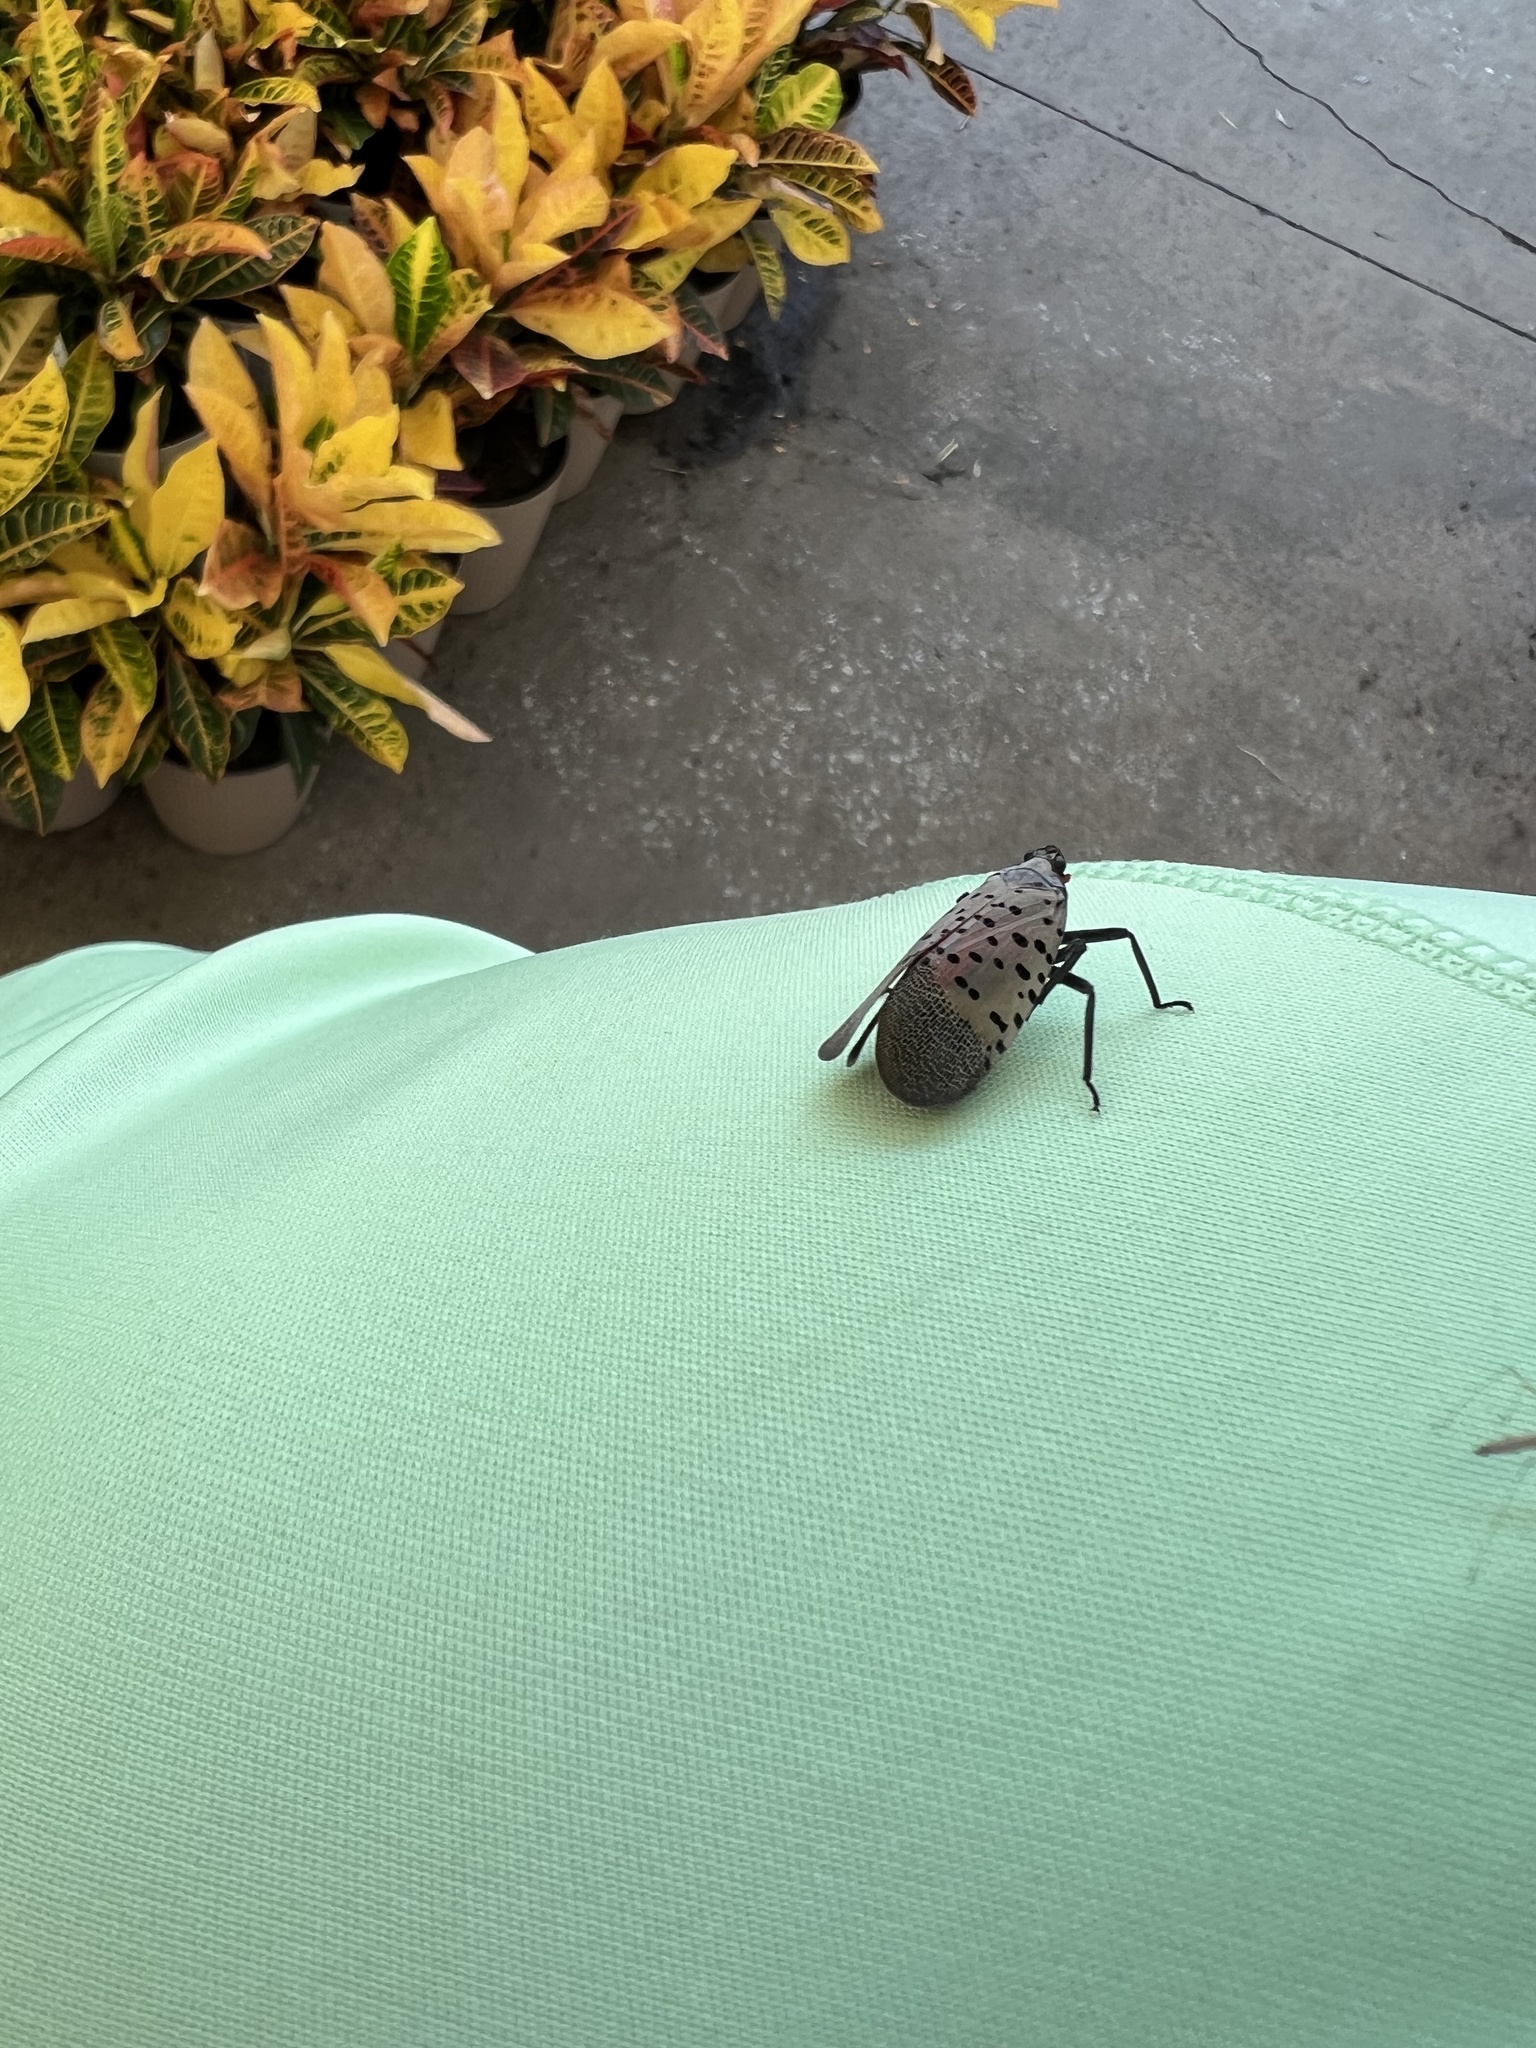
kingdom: Animalia
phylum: Arthropoda
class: Insecta
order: Hemiptera
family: Fulgoridae
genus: Lycorma
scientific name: Lycorma delicatula
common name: Spotted lanternfly
